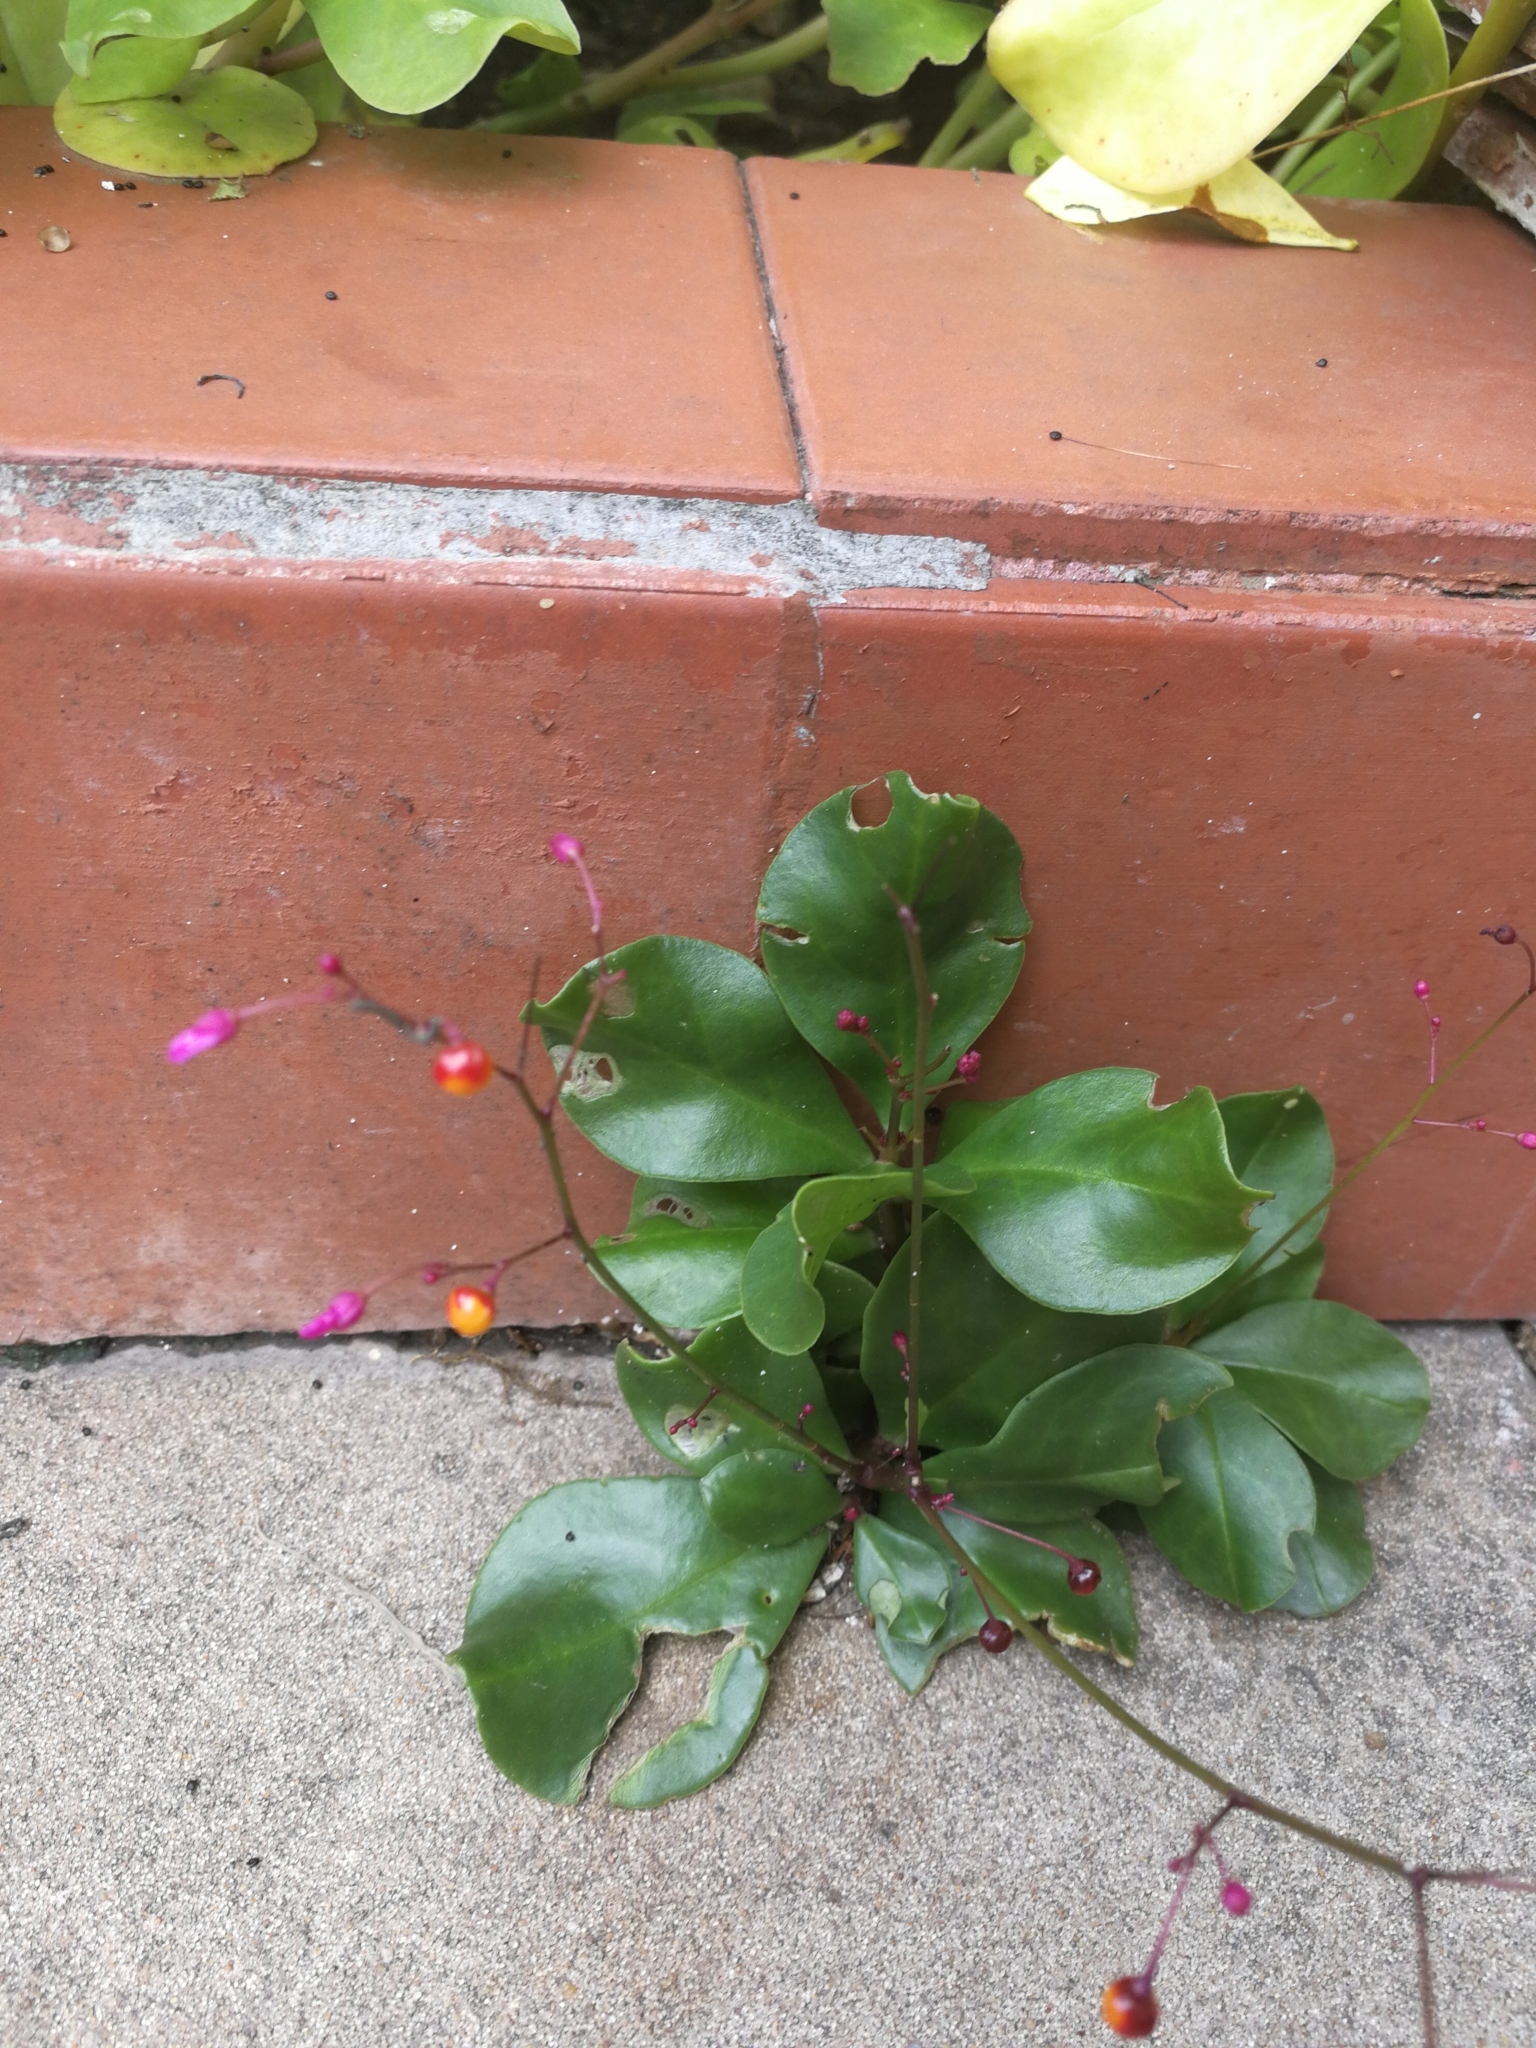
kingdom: Plantae
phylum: Tracheophyta
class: Magnoliopsida
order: Caryophyllales
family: Talinaceae
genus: Talinum
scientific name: Talinum paniculatum
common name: Jewels of opar
